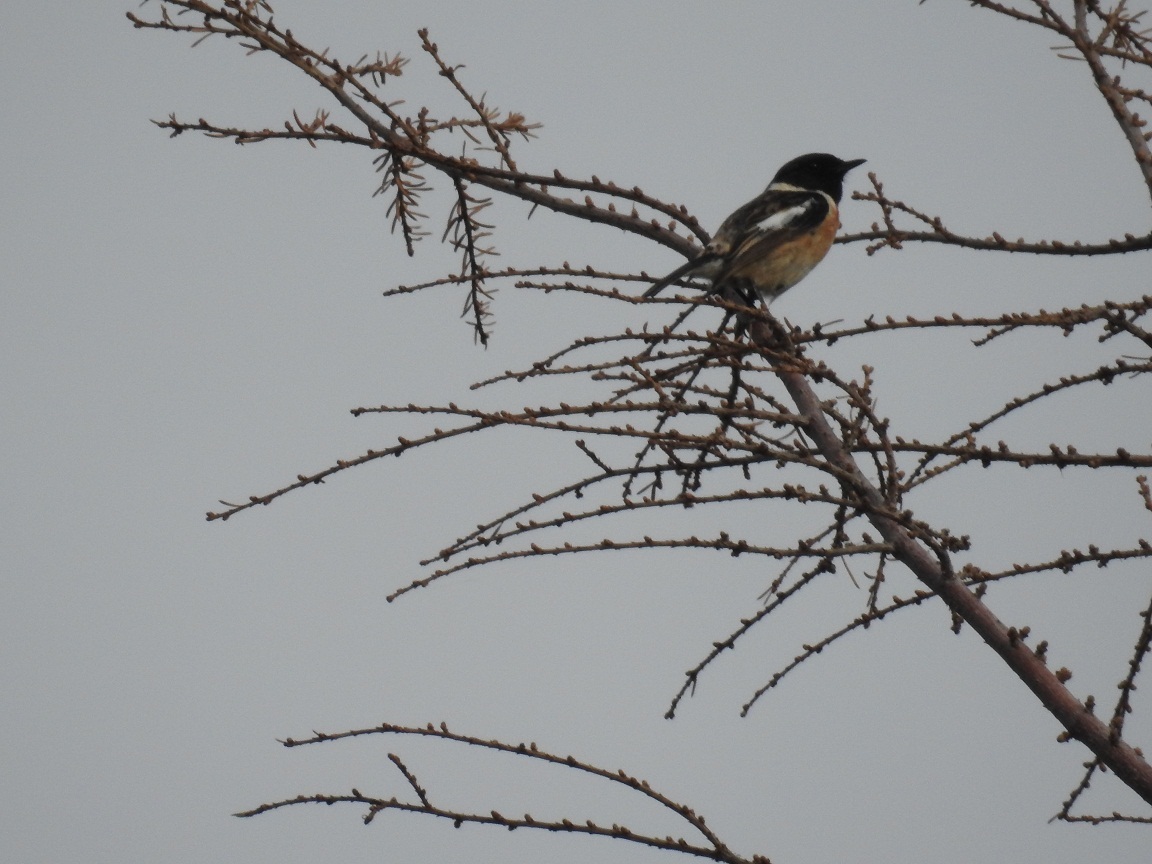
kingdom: Animalia
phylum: Chordata
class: Aves
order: Passeriformes
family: Muscicapidae
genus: Saxicola
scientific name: Saxicola rubicola
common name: European stonechat
